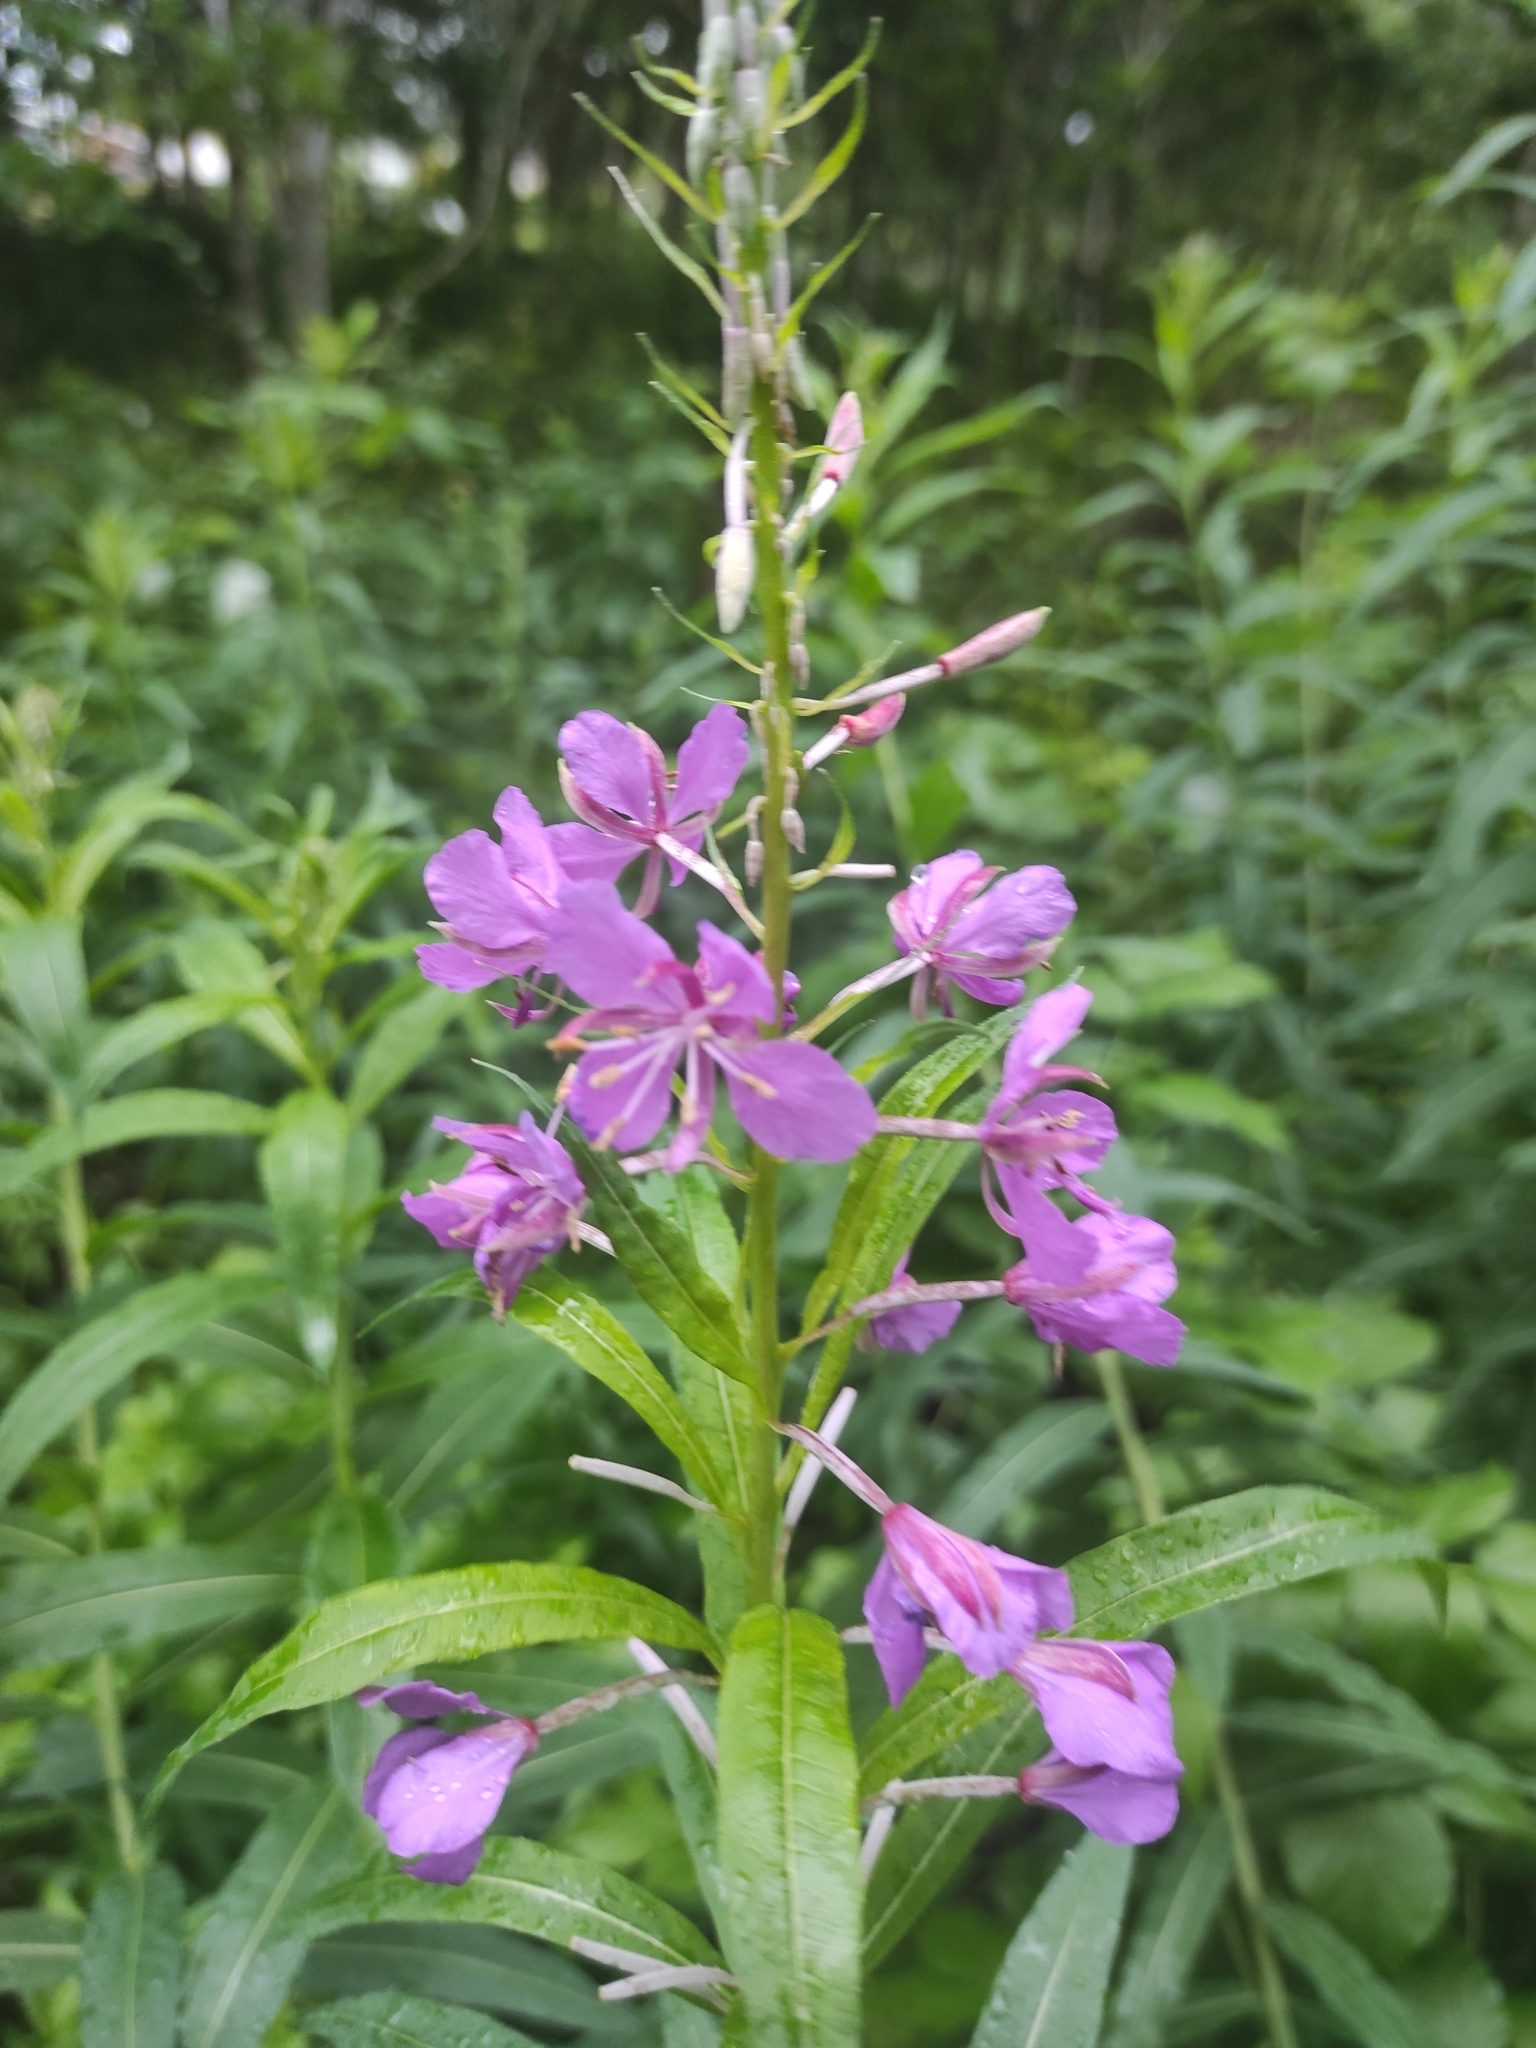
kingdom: Plantae
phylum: Tracheophyta
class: Magnoliopsida
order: Myrtales
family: Onagraceae
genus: Chamaenerion
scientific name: Chamaenerion angustifolium
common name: Fireweed
